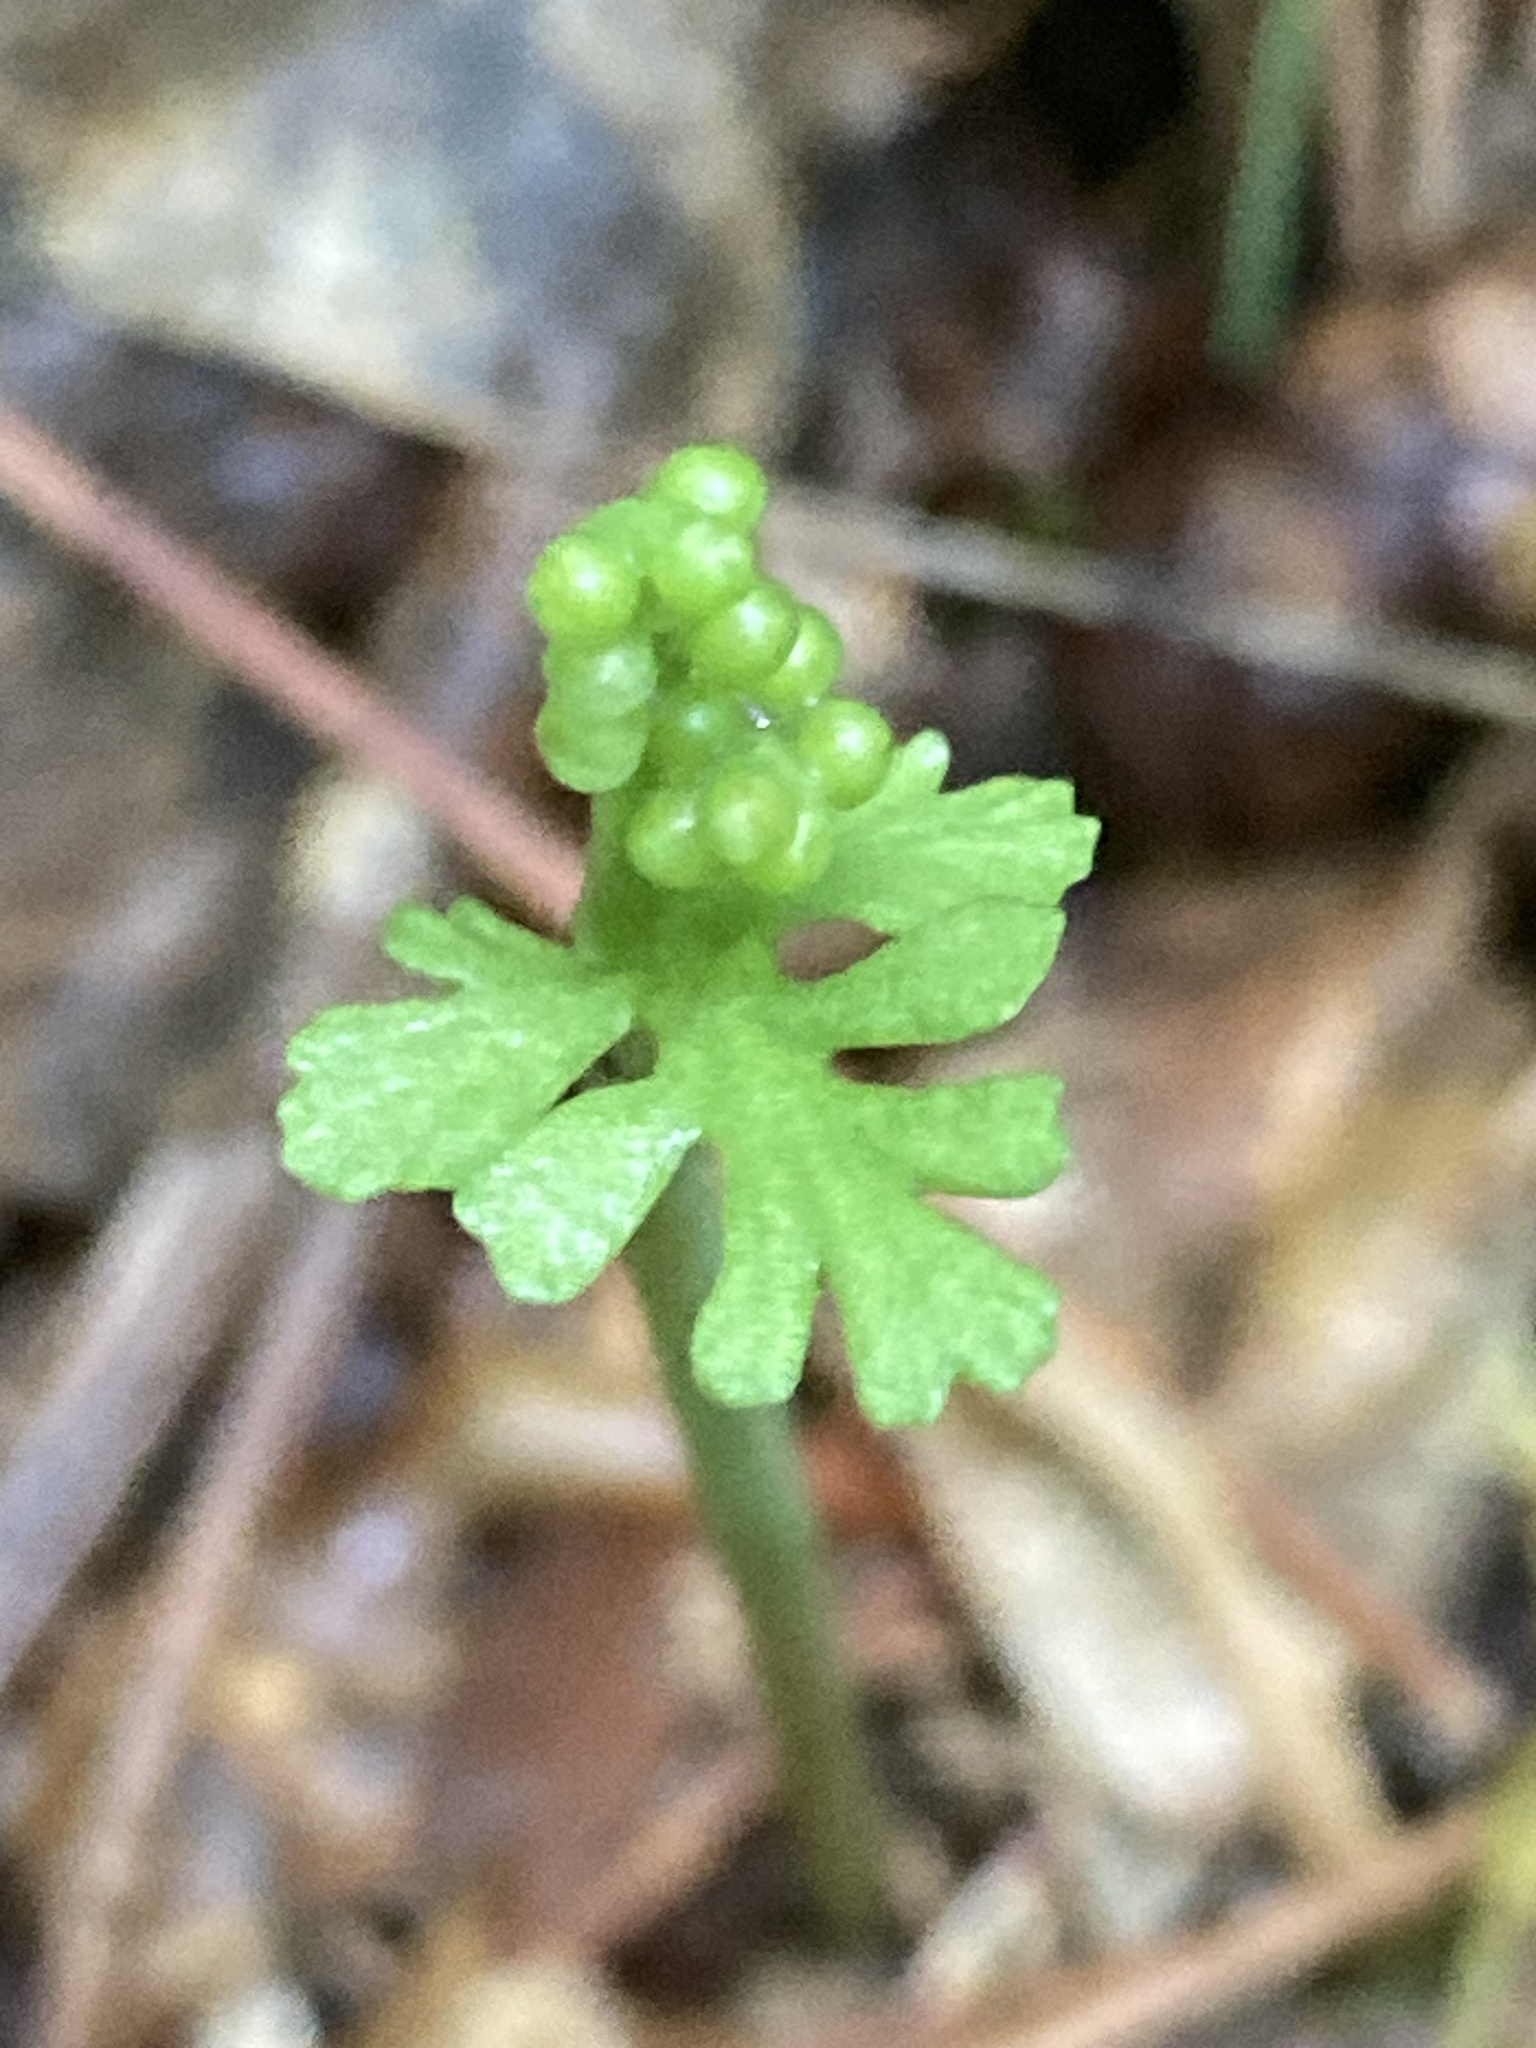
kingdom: Plantae
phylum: Tracheophyta
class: Polypodiopsida
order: Ophioglossales
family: Ophioglossaceae
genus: Botrychium
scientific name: Botrychium matricariifolium
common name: Branched moonwort
